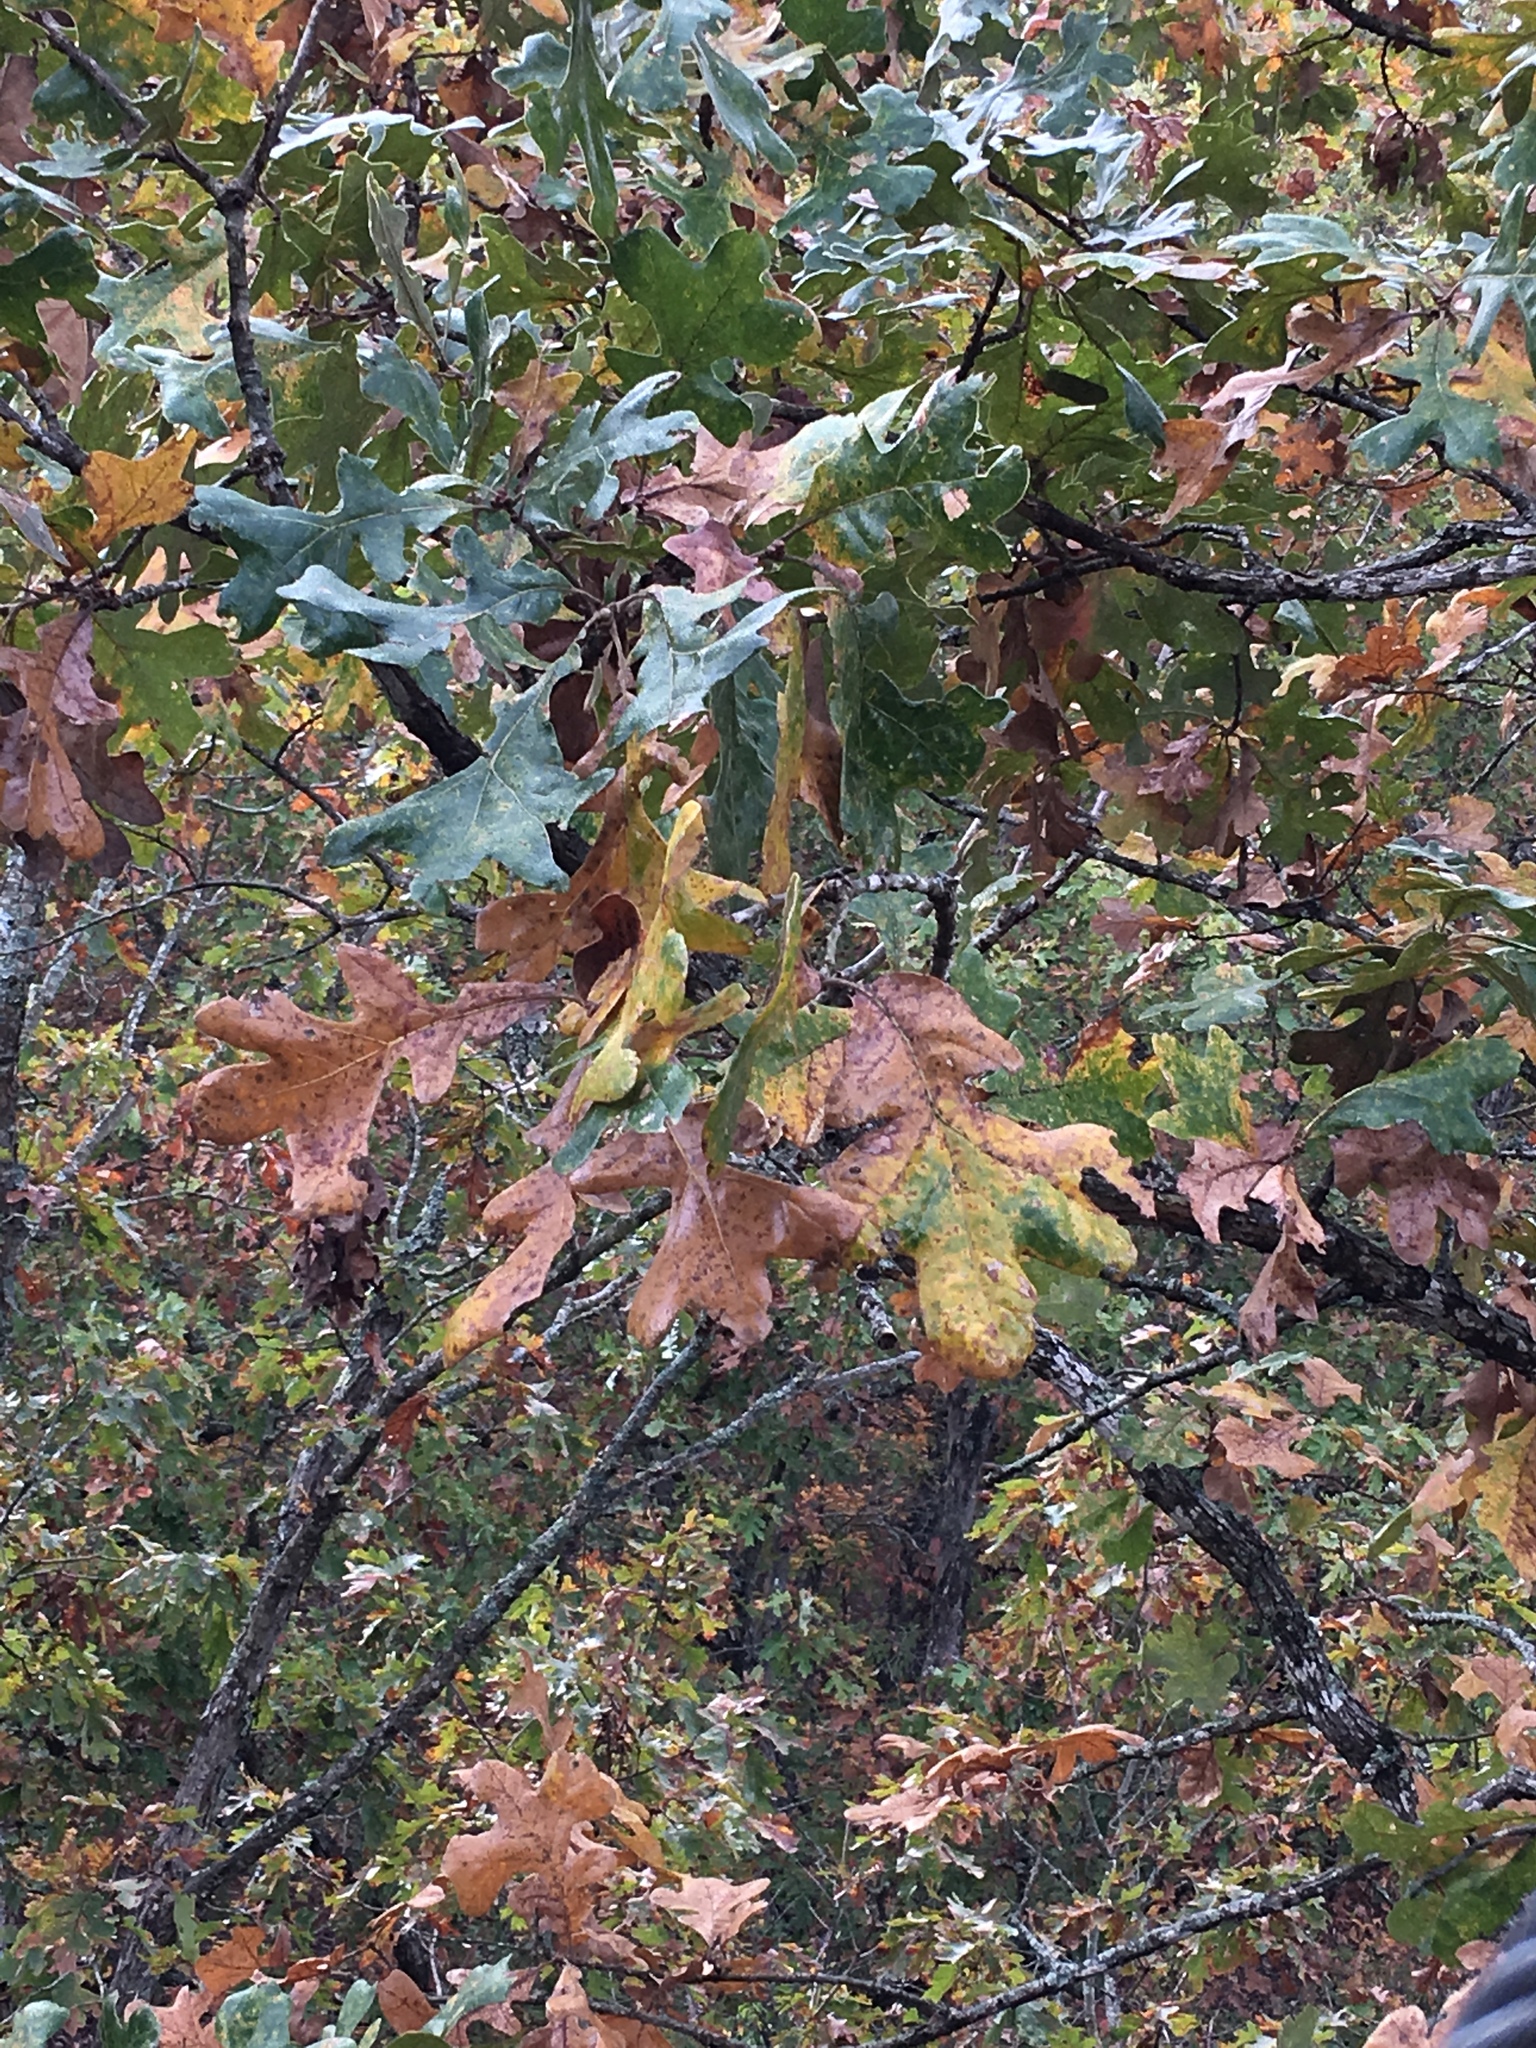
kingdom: Plantae
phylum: Tracheophyta
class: Magnoliopsida
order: Fagales
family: Fagaceae
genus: Quercus
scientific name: Quercus stellata
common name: Post oak
